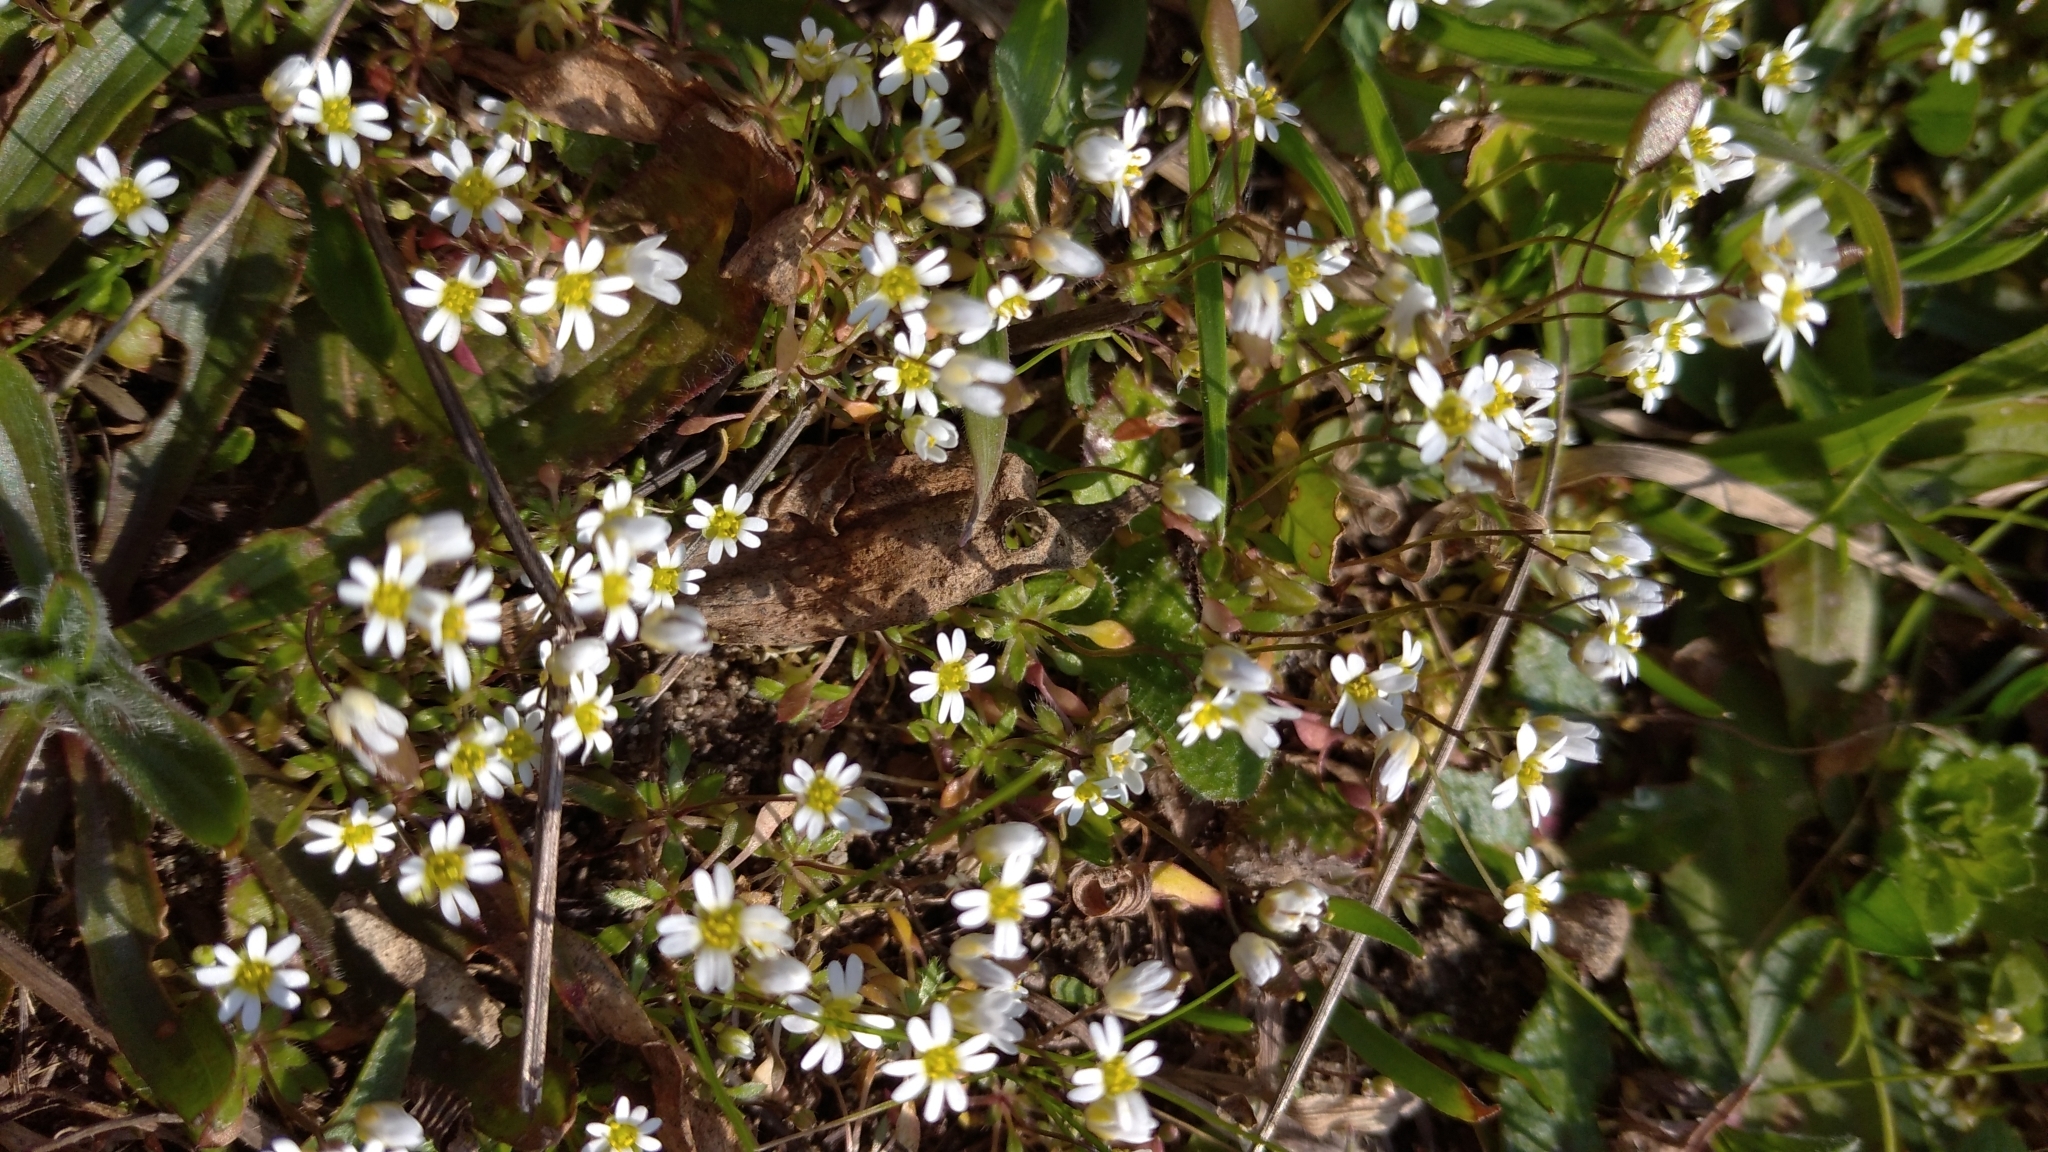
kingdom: Plantae
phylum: Tracheophyta
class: Magnoliopsida
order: Brassicales
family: Brassicaceae
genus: Draba
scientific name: Draba verna
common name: Spring draba
